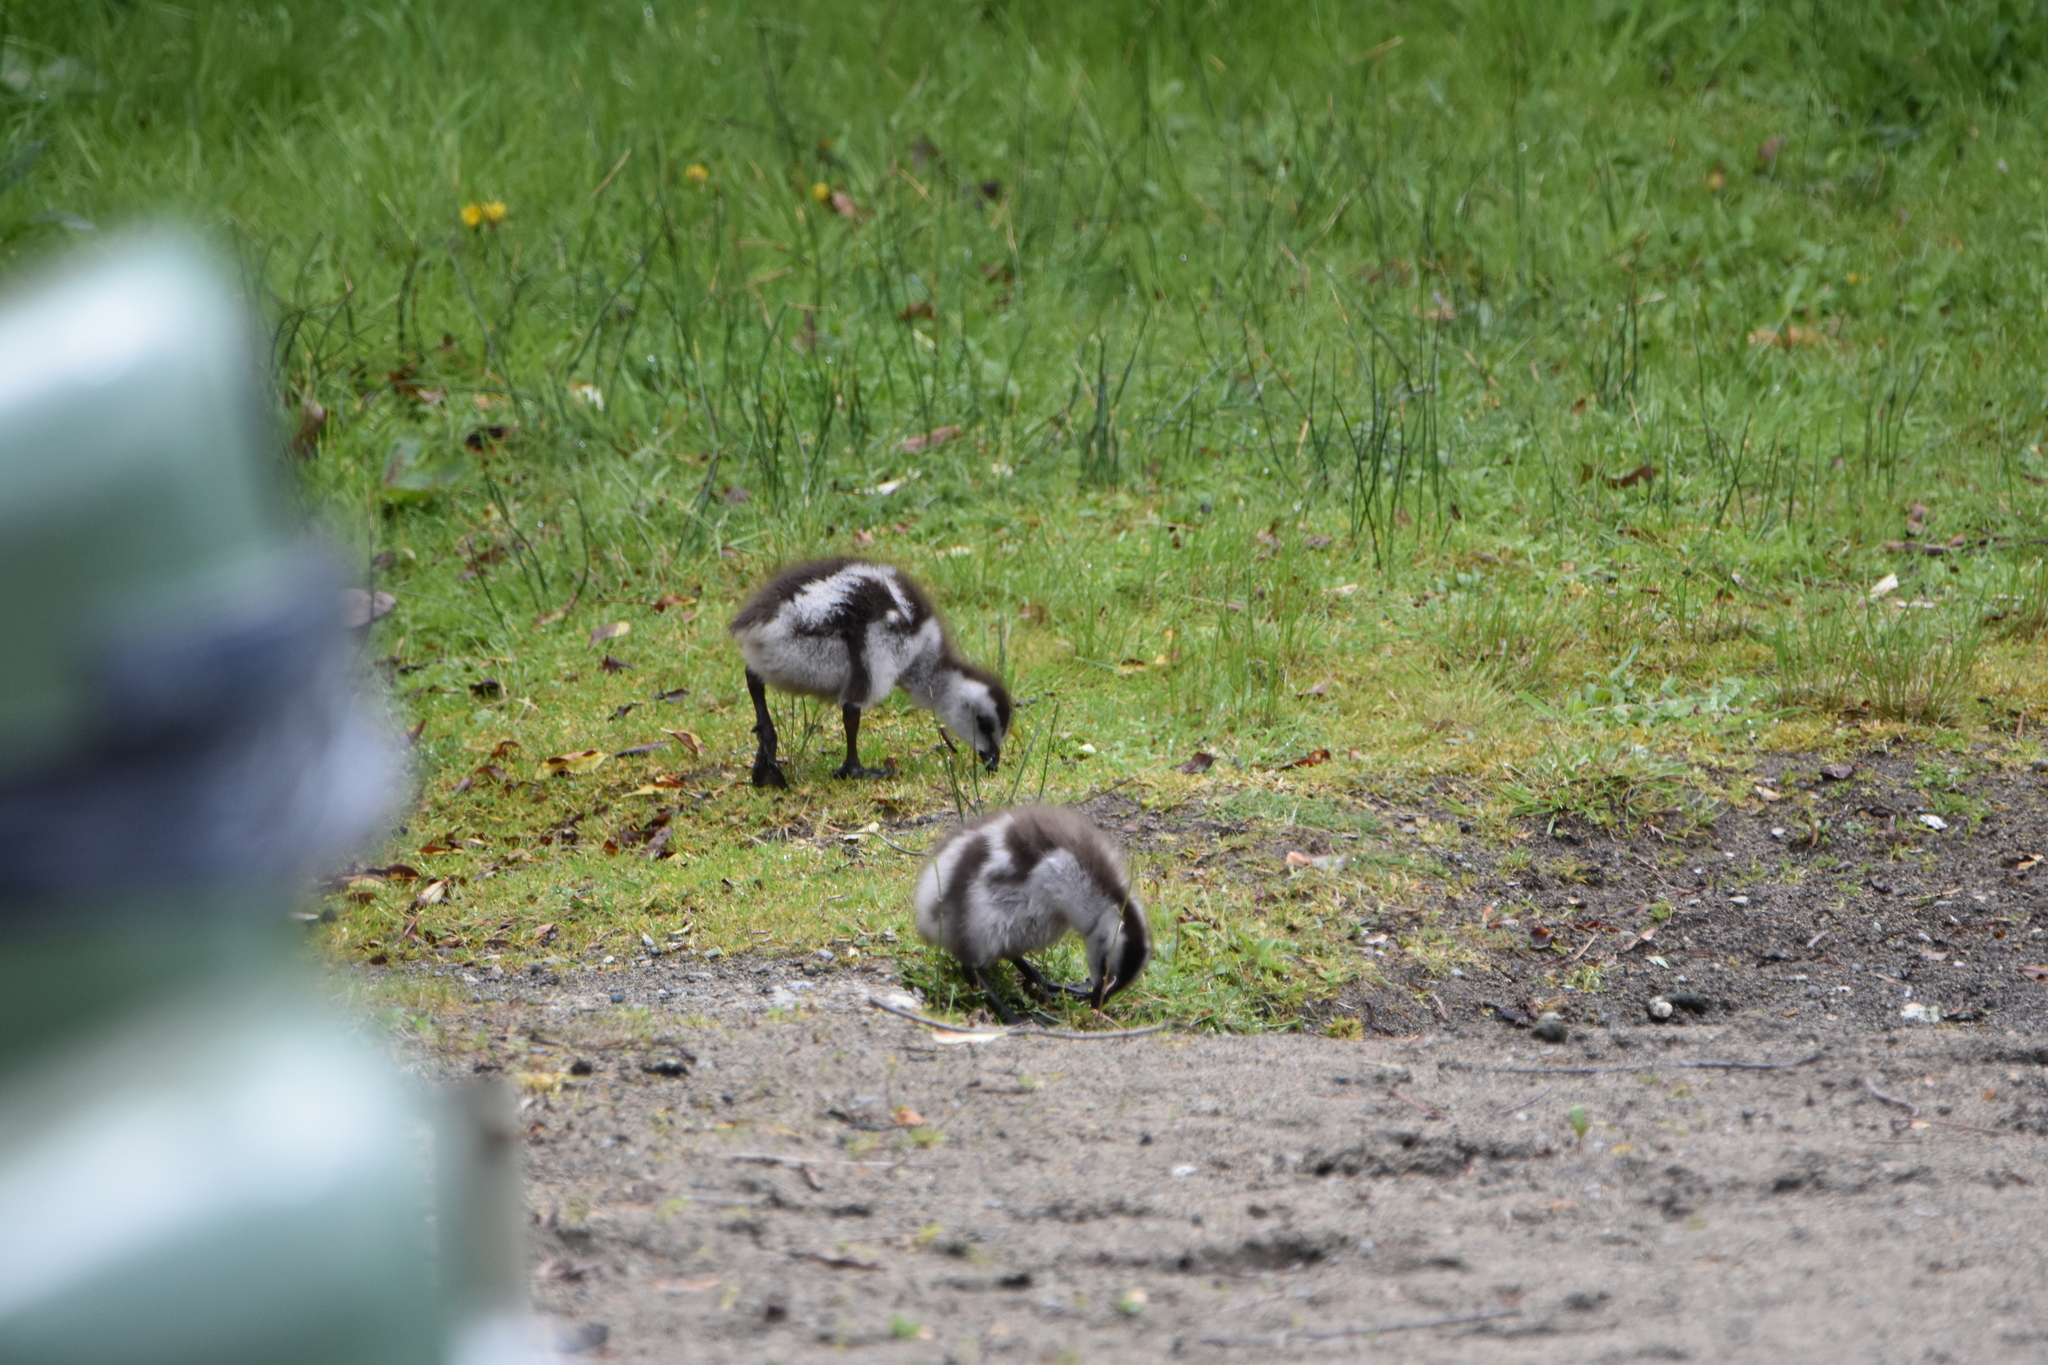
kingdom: Animalia
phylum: Chordata
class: Aves
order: Anseriformes
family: Anatidae
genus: Chloephaga
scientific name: Chloephaga poliocephala
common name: Ashy-headed goose
